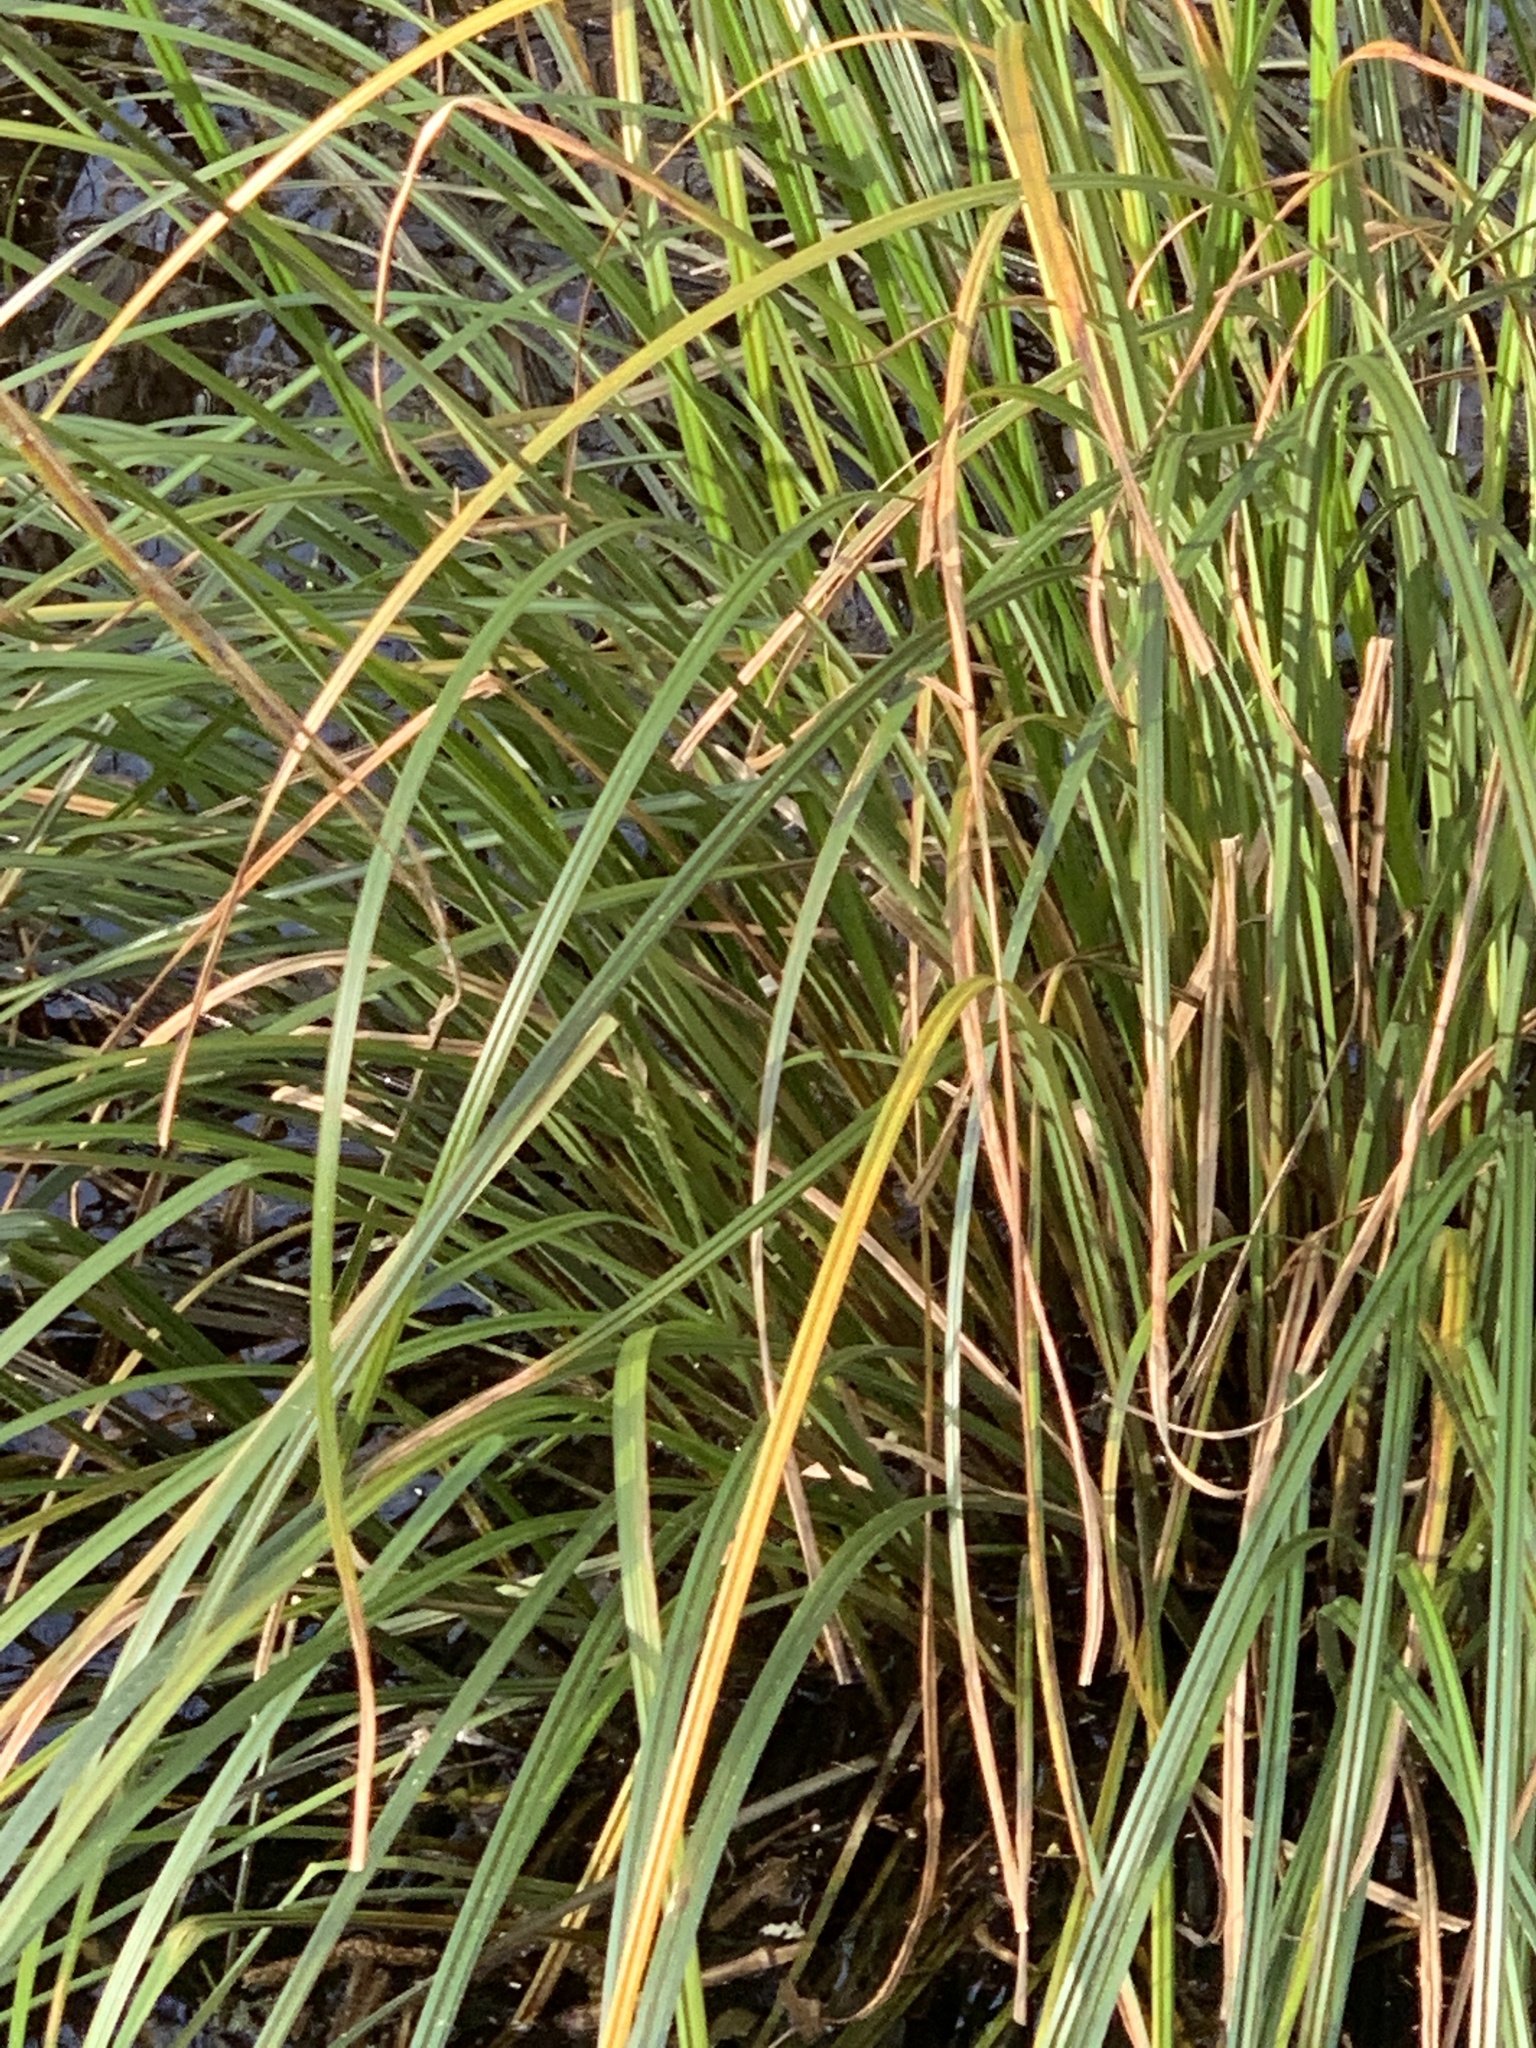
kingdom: Plantae
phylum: Tracheophyta
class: Liliopsida
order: Poales
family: Cyperaceae
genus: Carex
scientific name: Carex obnupta
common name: Slough sedge
